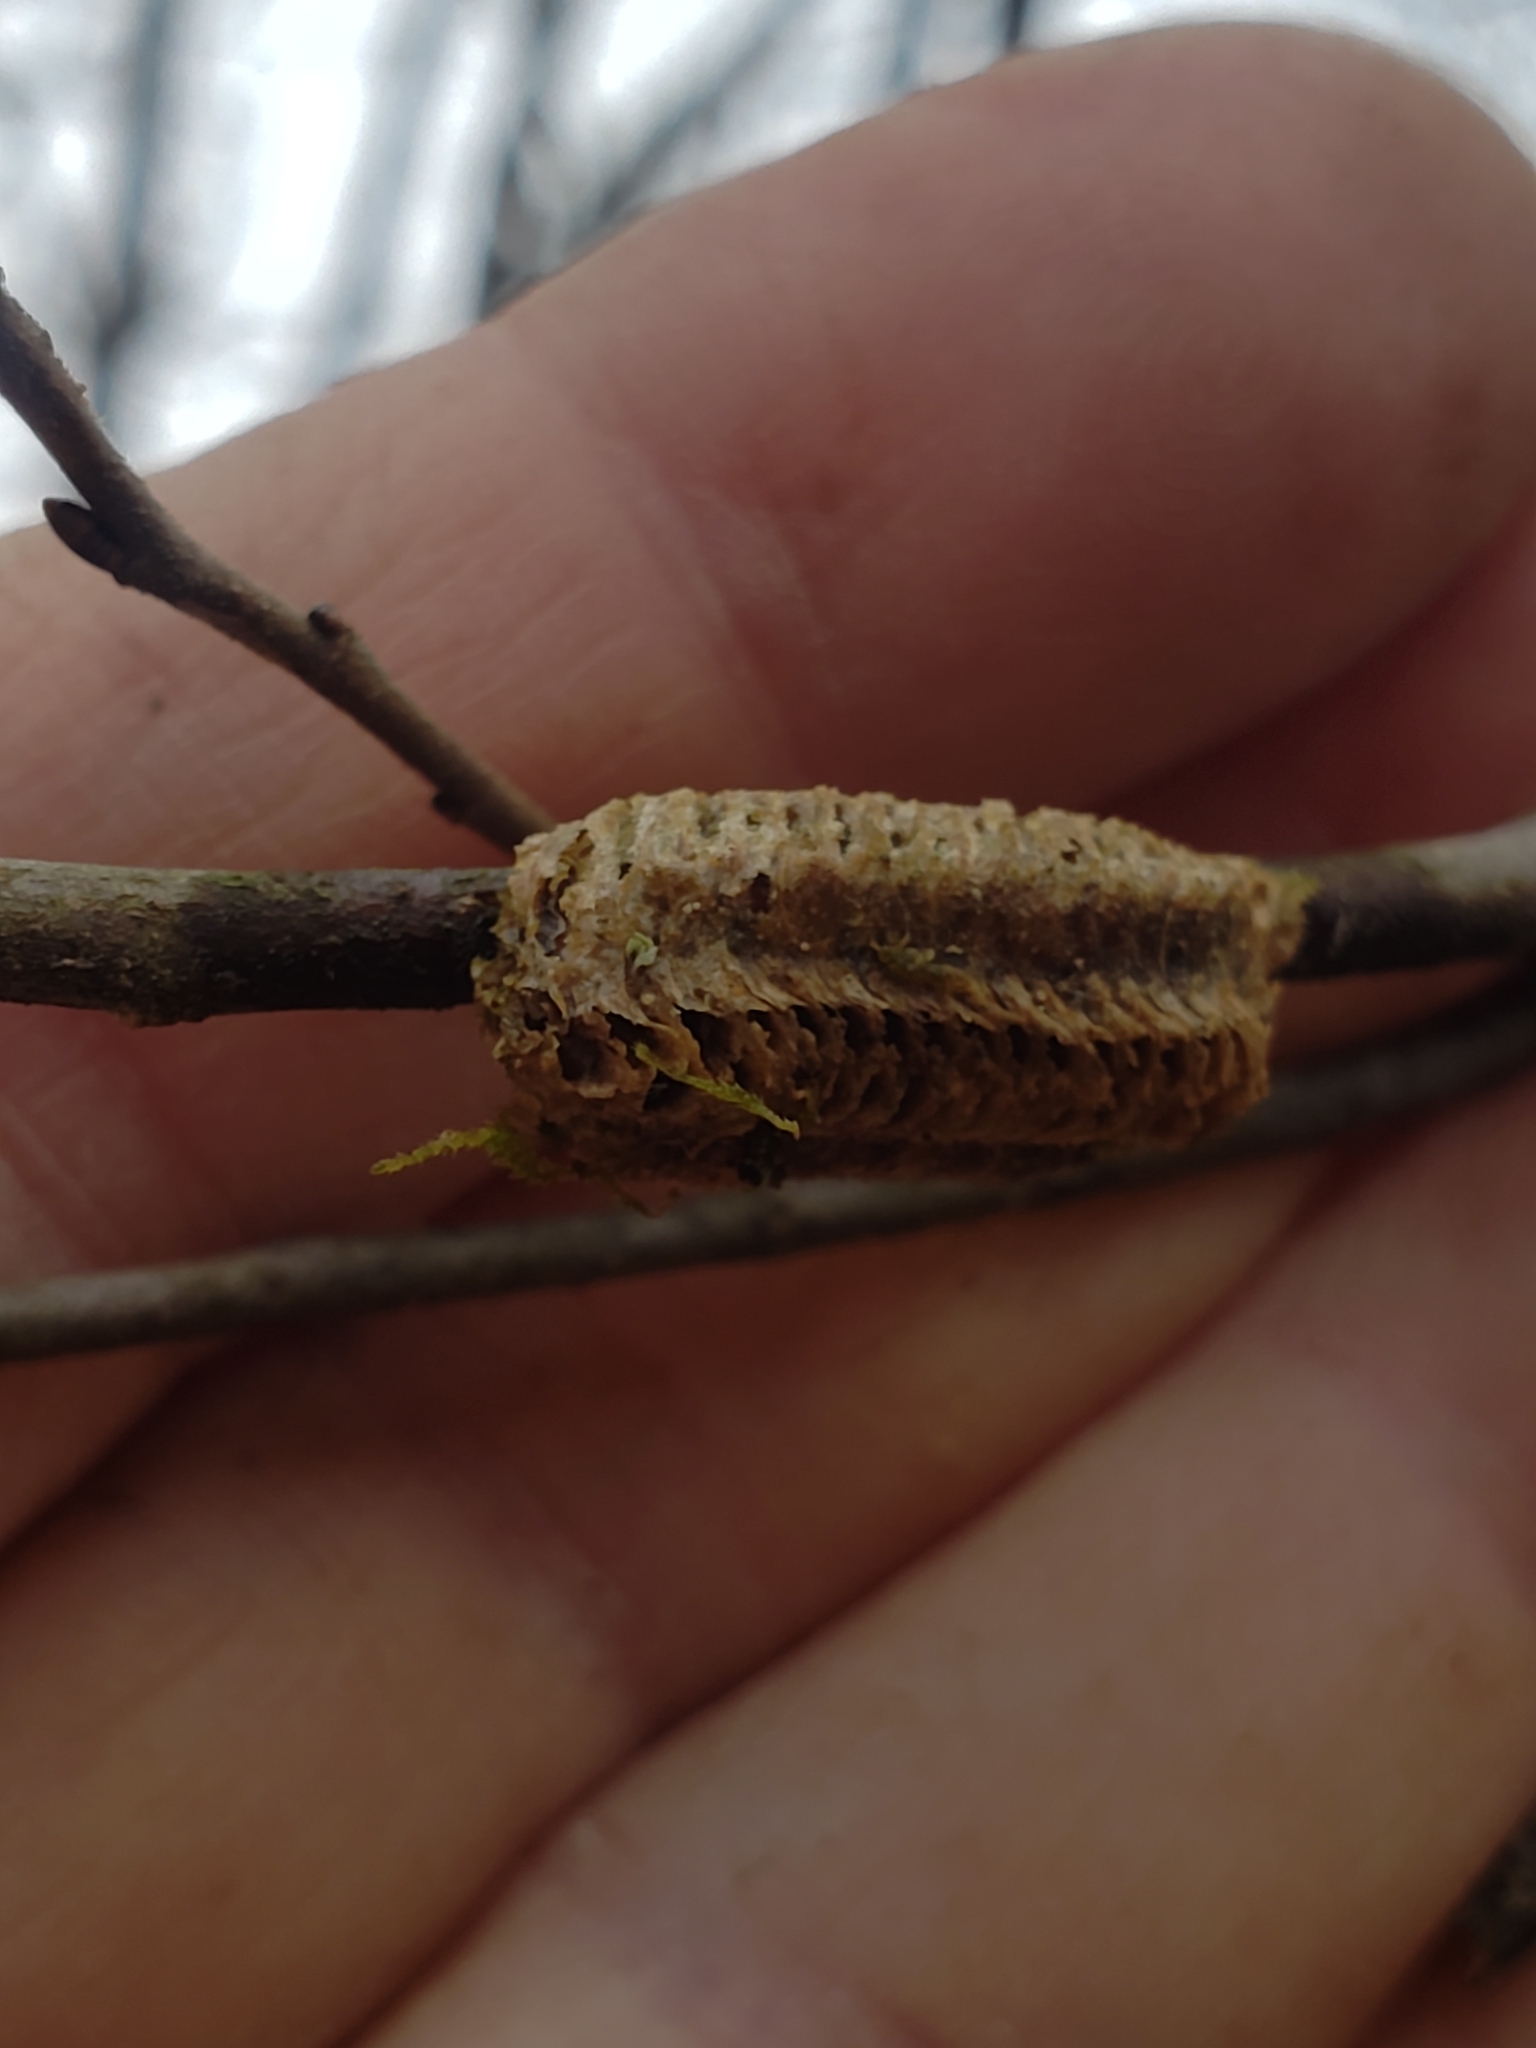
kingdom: Animalia
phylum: Arthropoda
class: Insecta
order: Mantodea
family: Mantidae
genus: Stagmomantis
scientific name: Stagmomantis carolina
